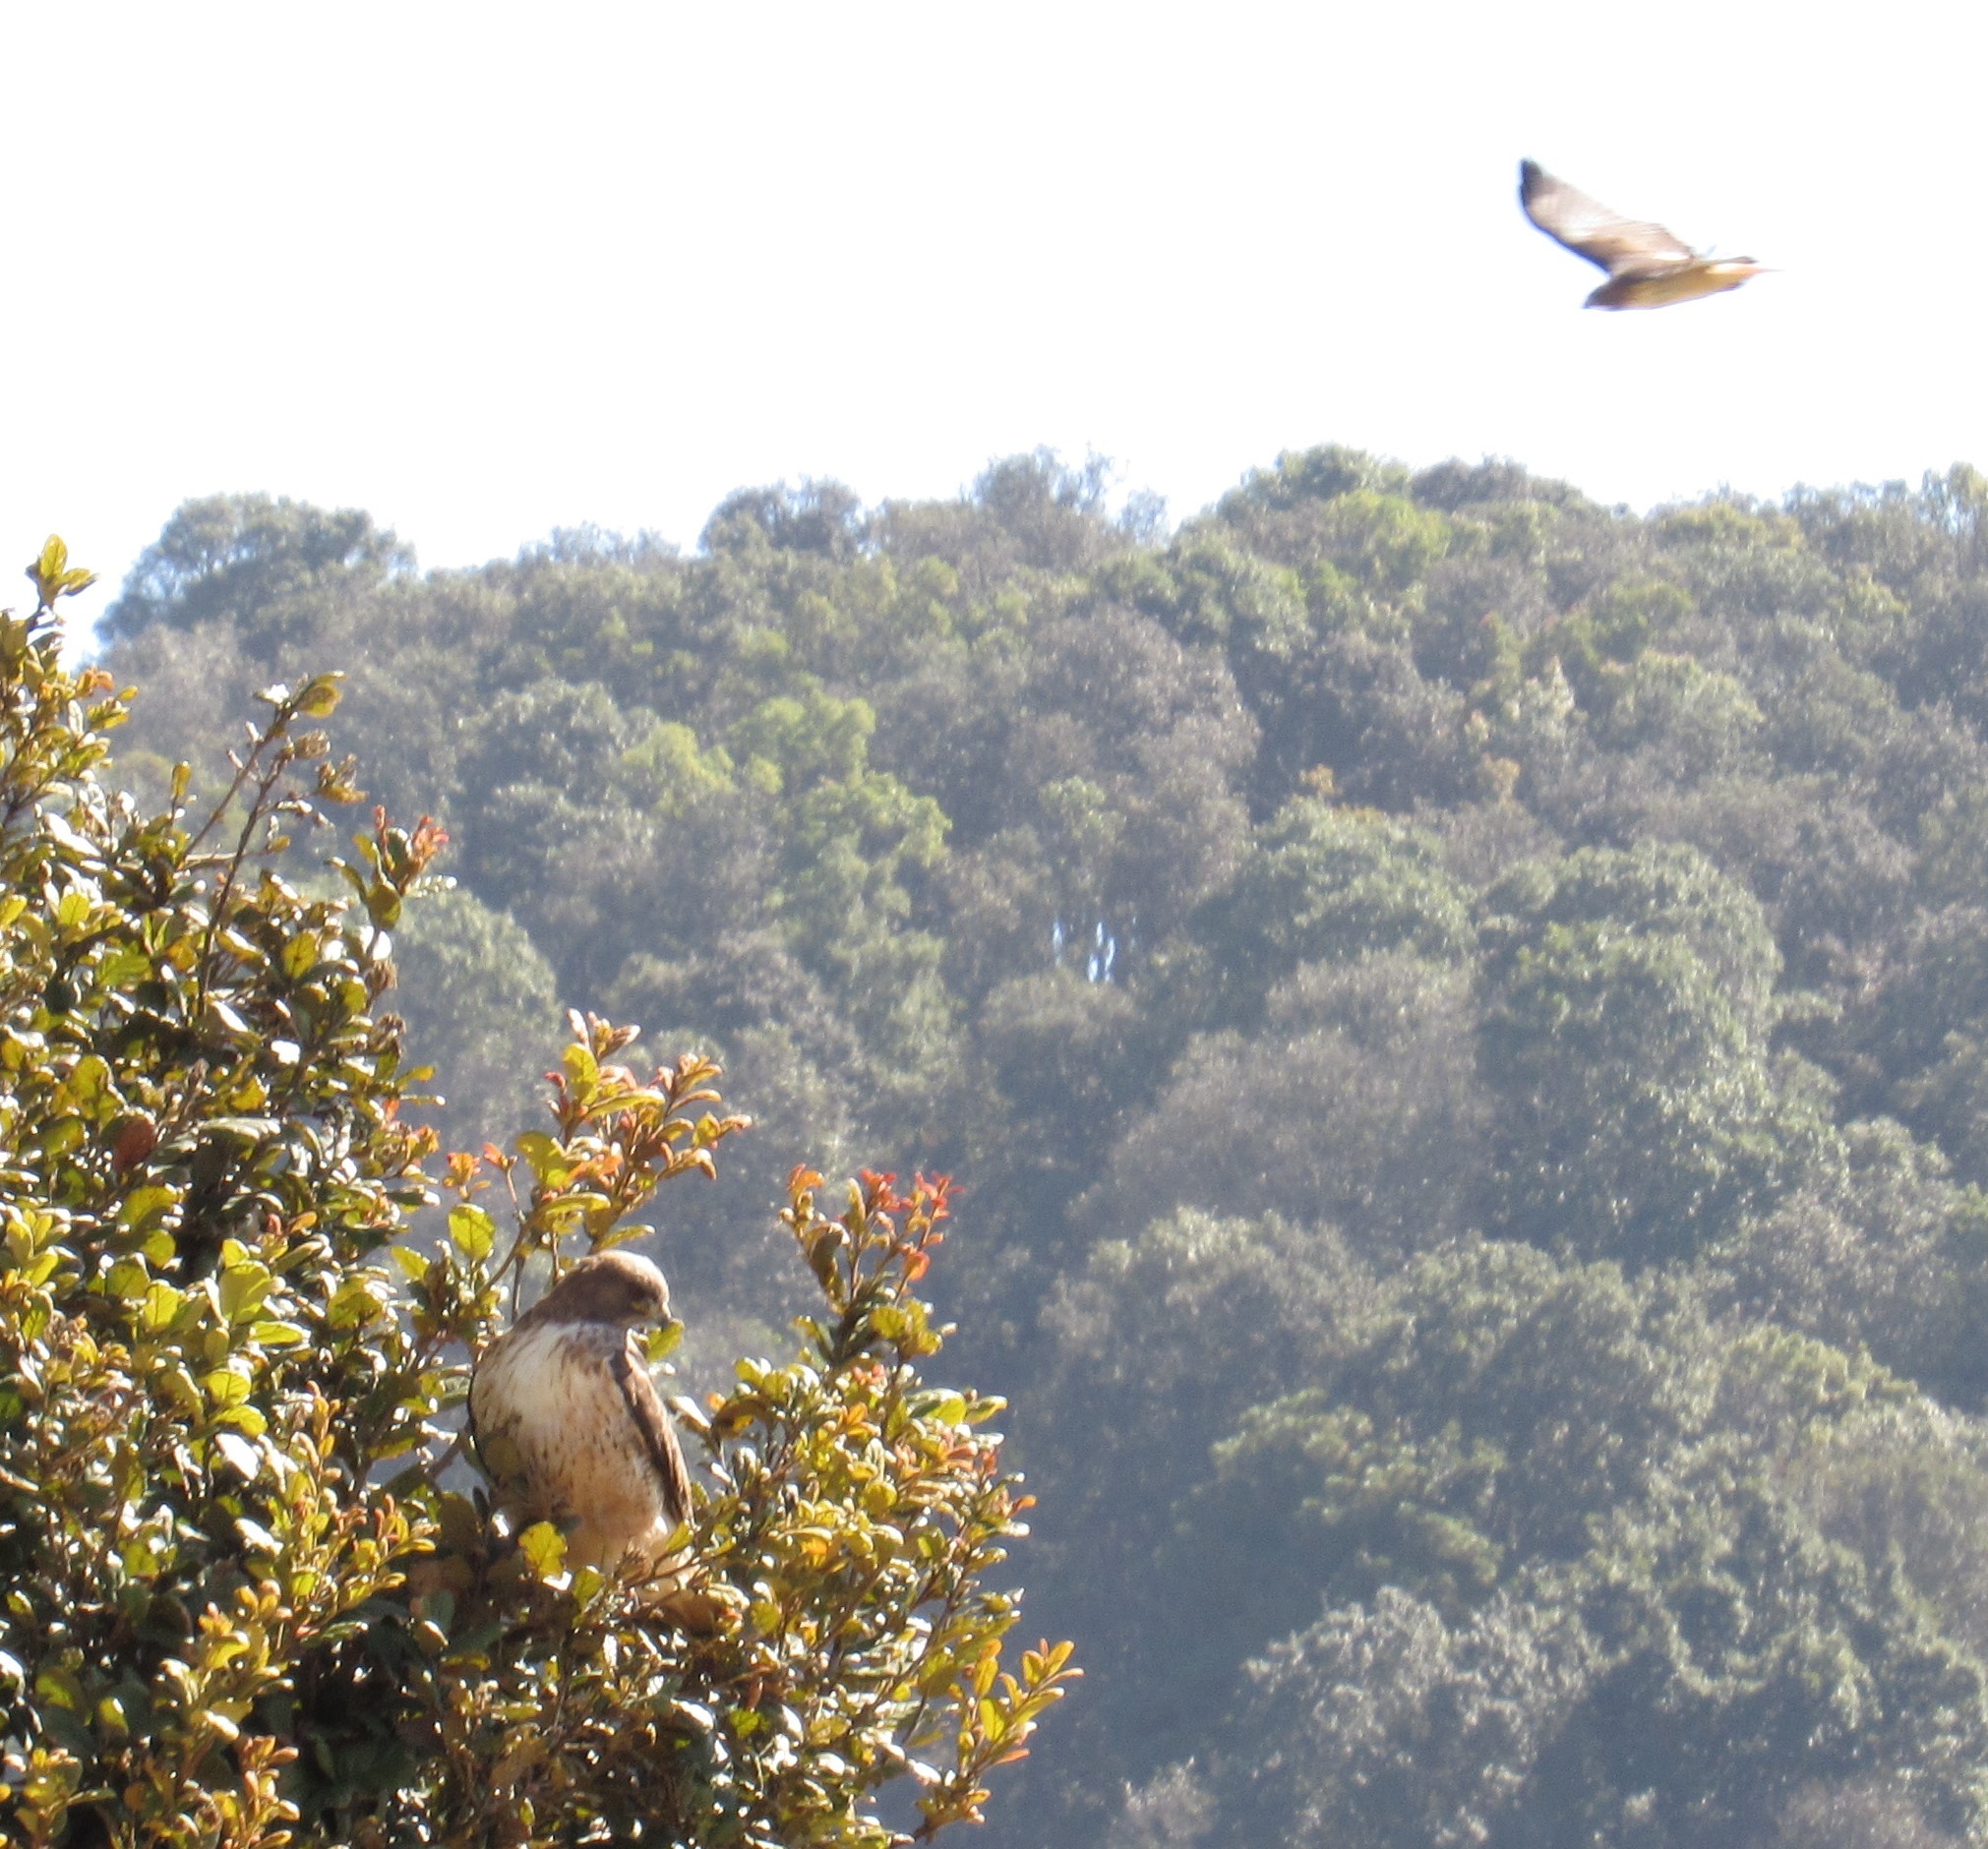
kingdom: Animalia
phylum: Chordata
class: Aves
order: Accipitriformes
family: Accipitridae
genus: Buteo
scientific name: Buteo jamaicensis
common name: Red-tailed hawk
